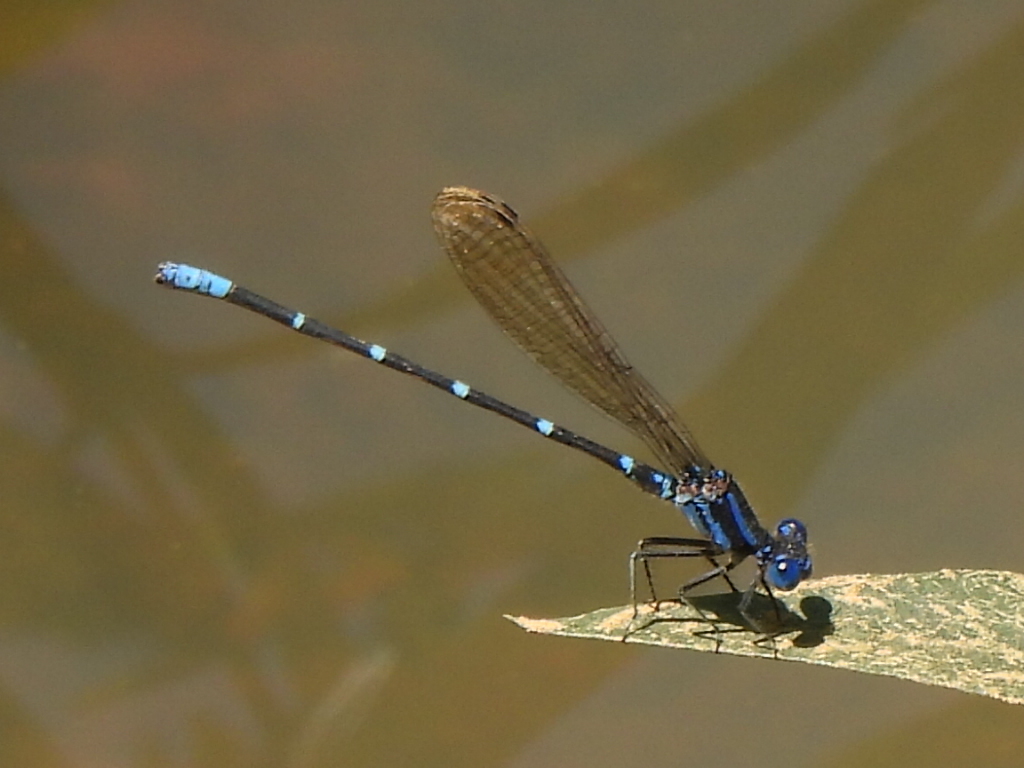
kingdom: Animalia
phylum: Arthropoda
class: Insecta
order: Odonata
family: Coenagrionidae
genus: Argia
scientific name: Argia sedula
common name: Blue-ringed dancer
